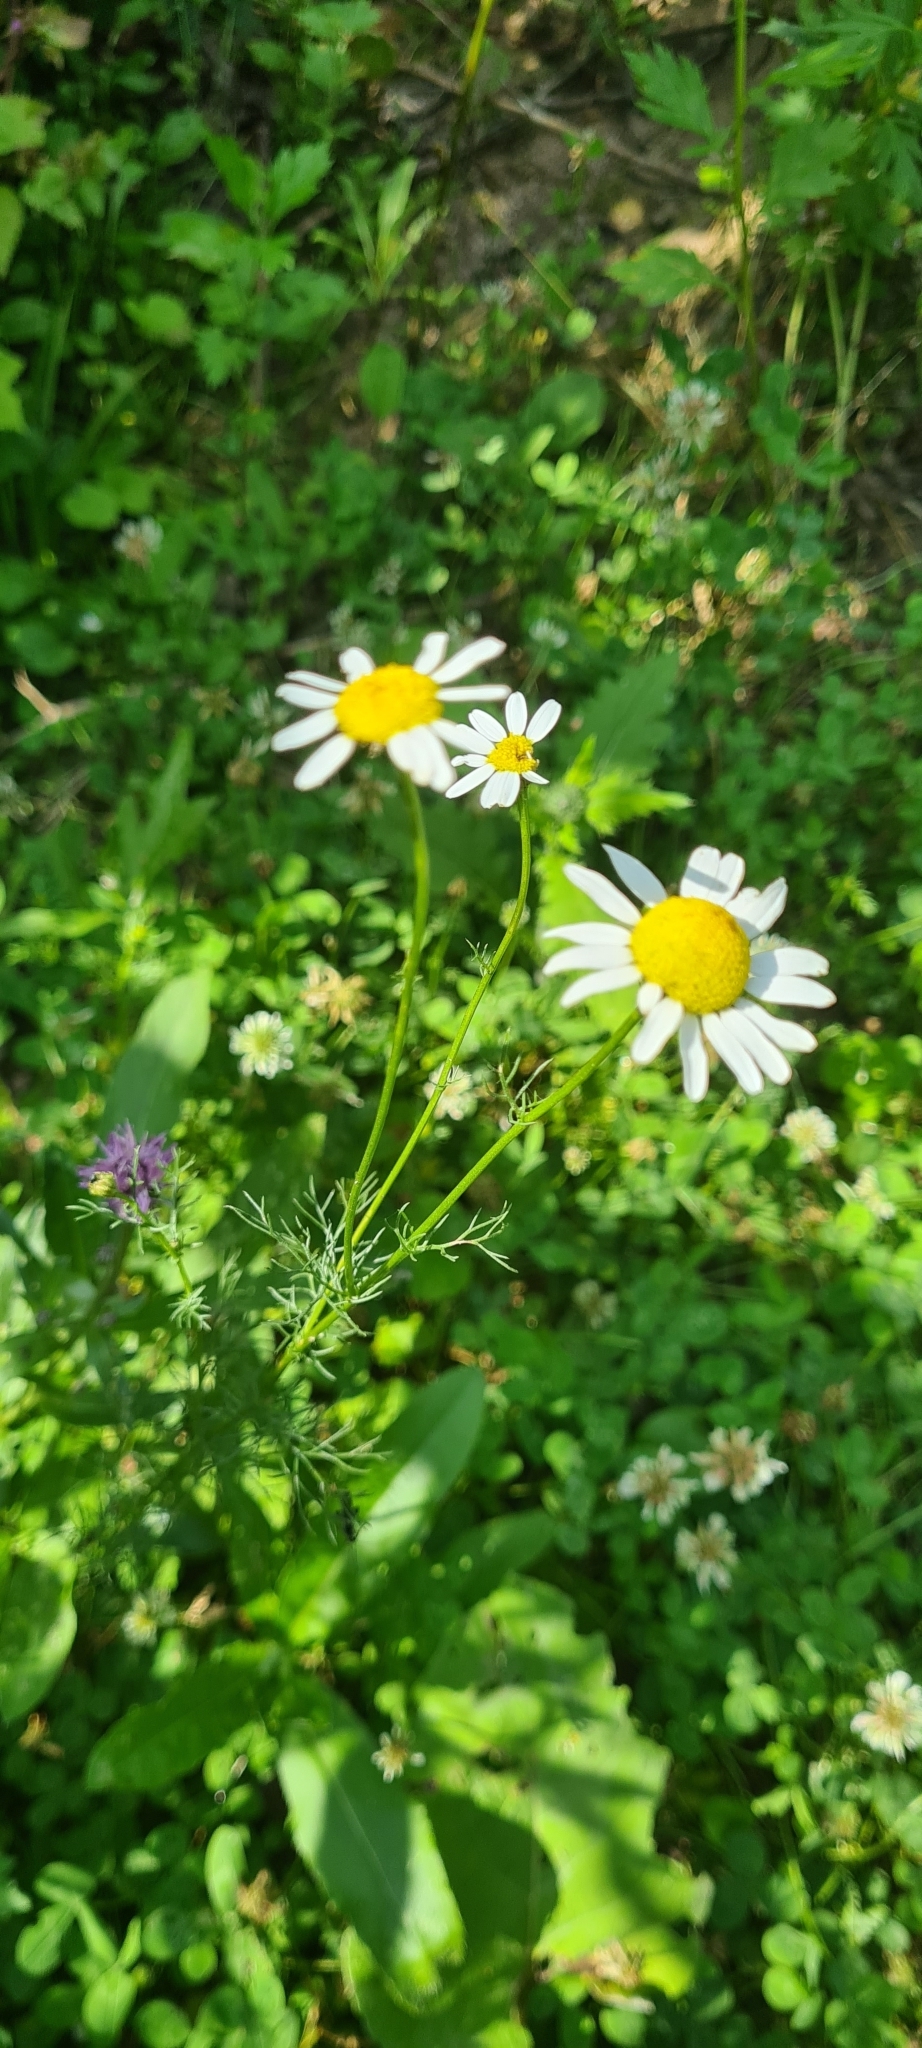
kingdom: Plantae
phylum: Tracheophyta
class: Magnoliopsida
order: Asterales
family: Asteraceae
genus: Tripleurospermum
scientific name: Tripleurospermum inodorum
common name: Scentless mayweed
